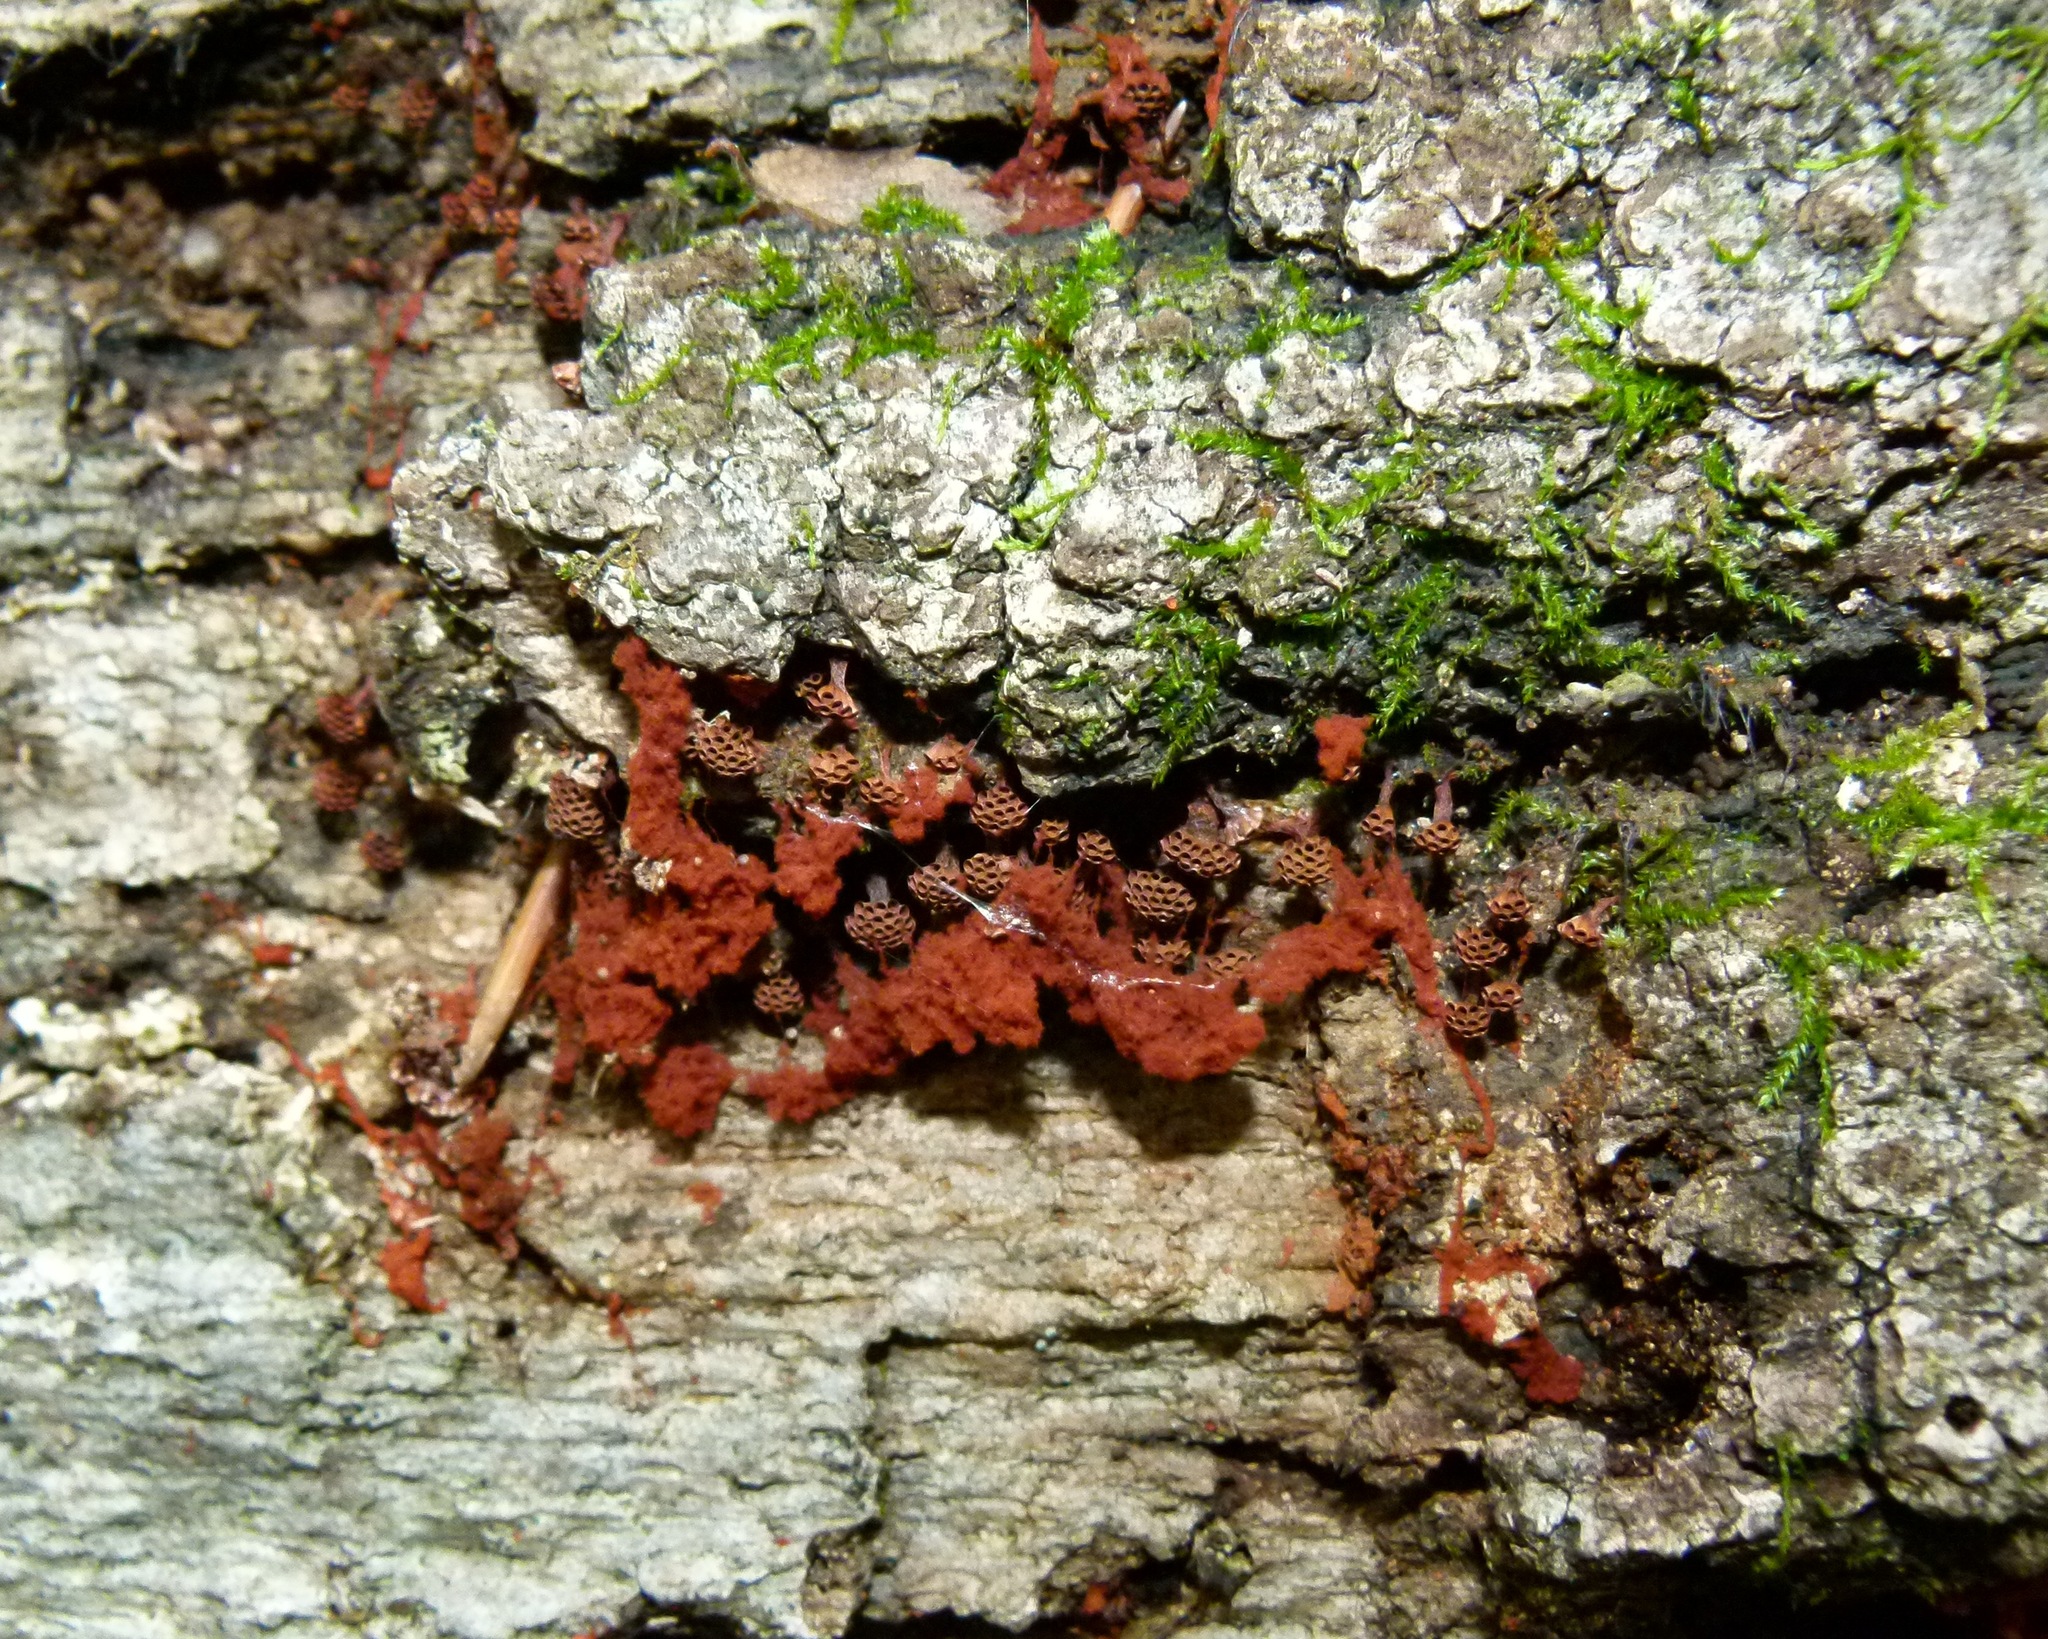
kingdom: Protozoa
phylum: Mycetozoa
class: Myxomycetes
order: Trichiales
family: Trichiaceae
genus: Metatrichia
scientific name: Metatrichia vesparia
